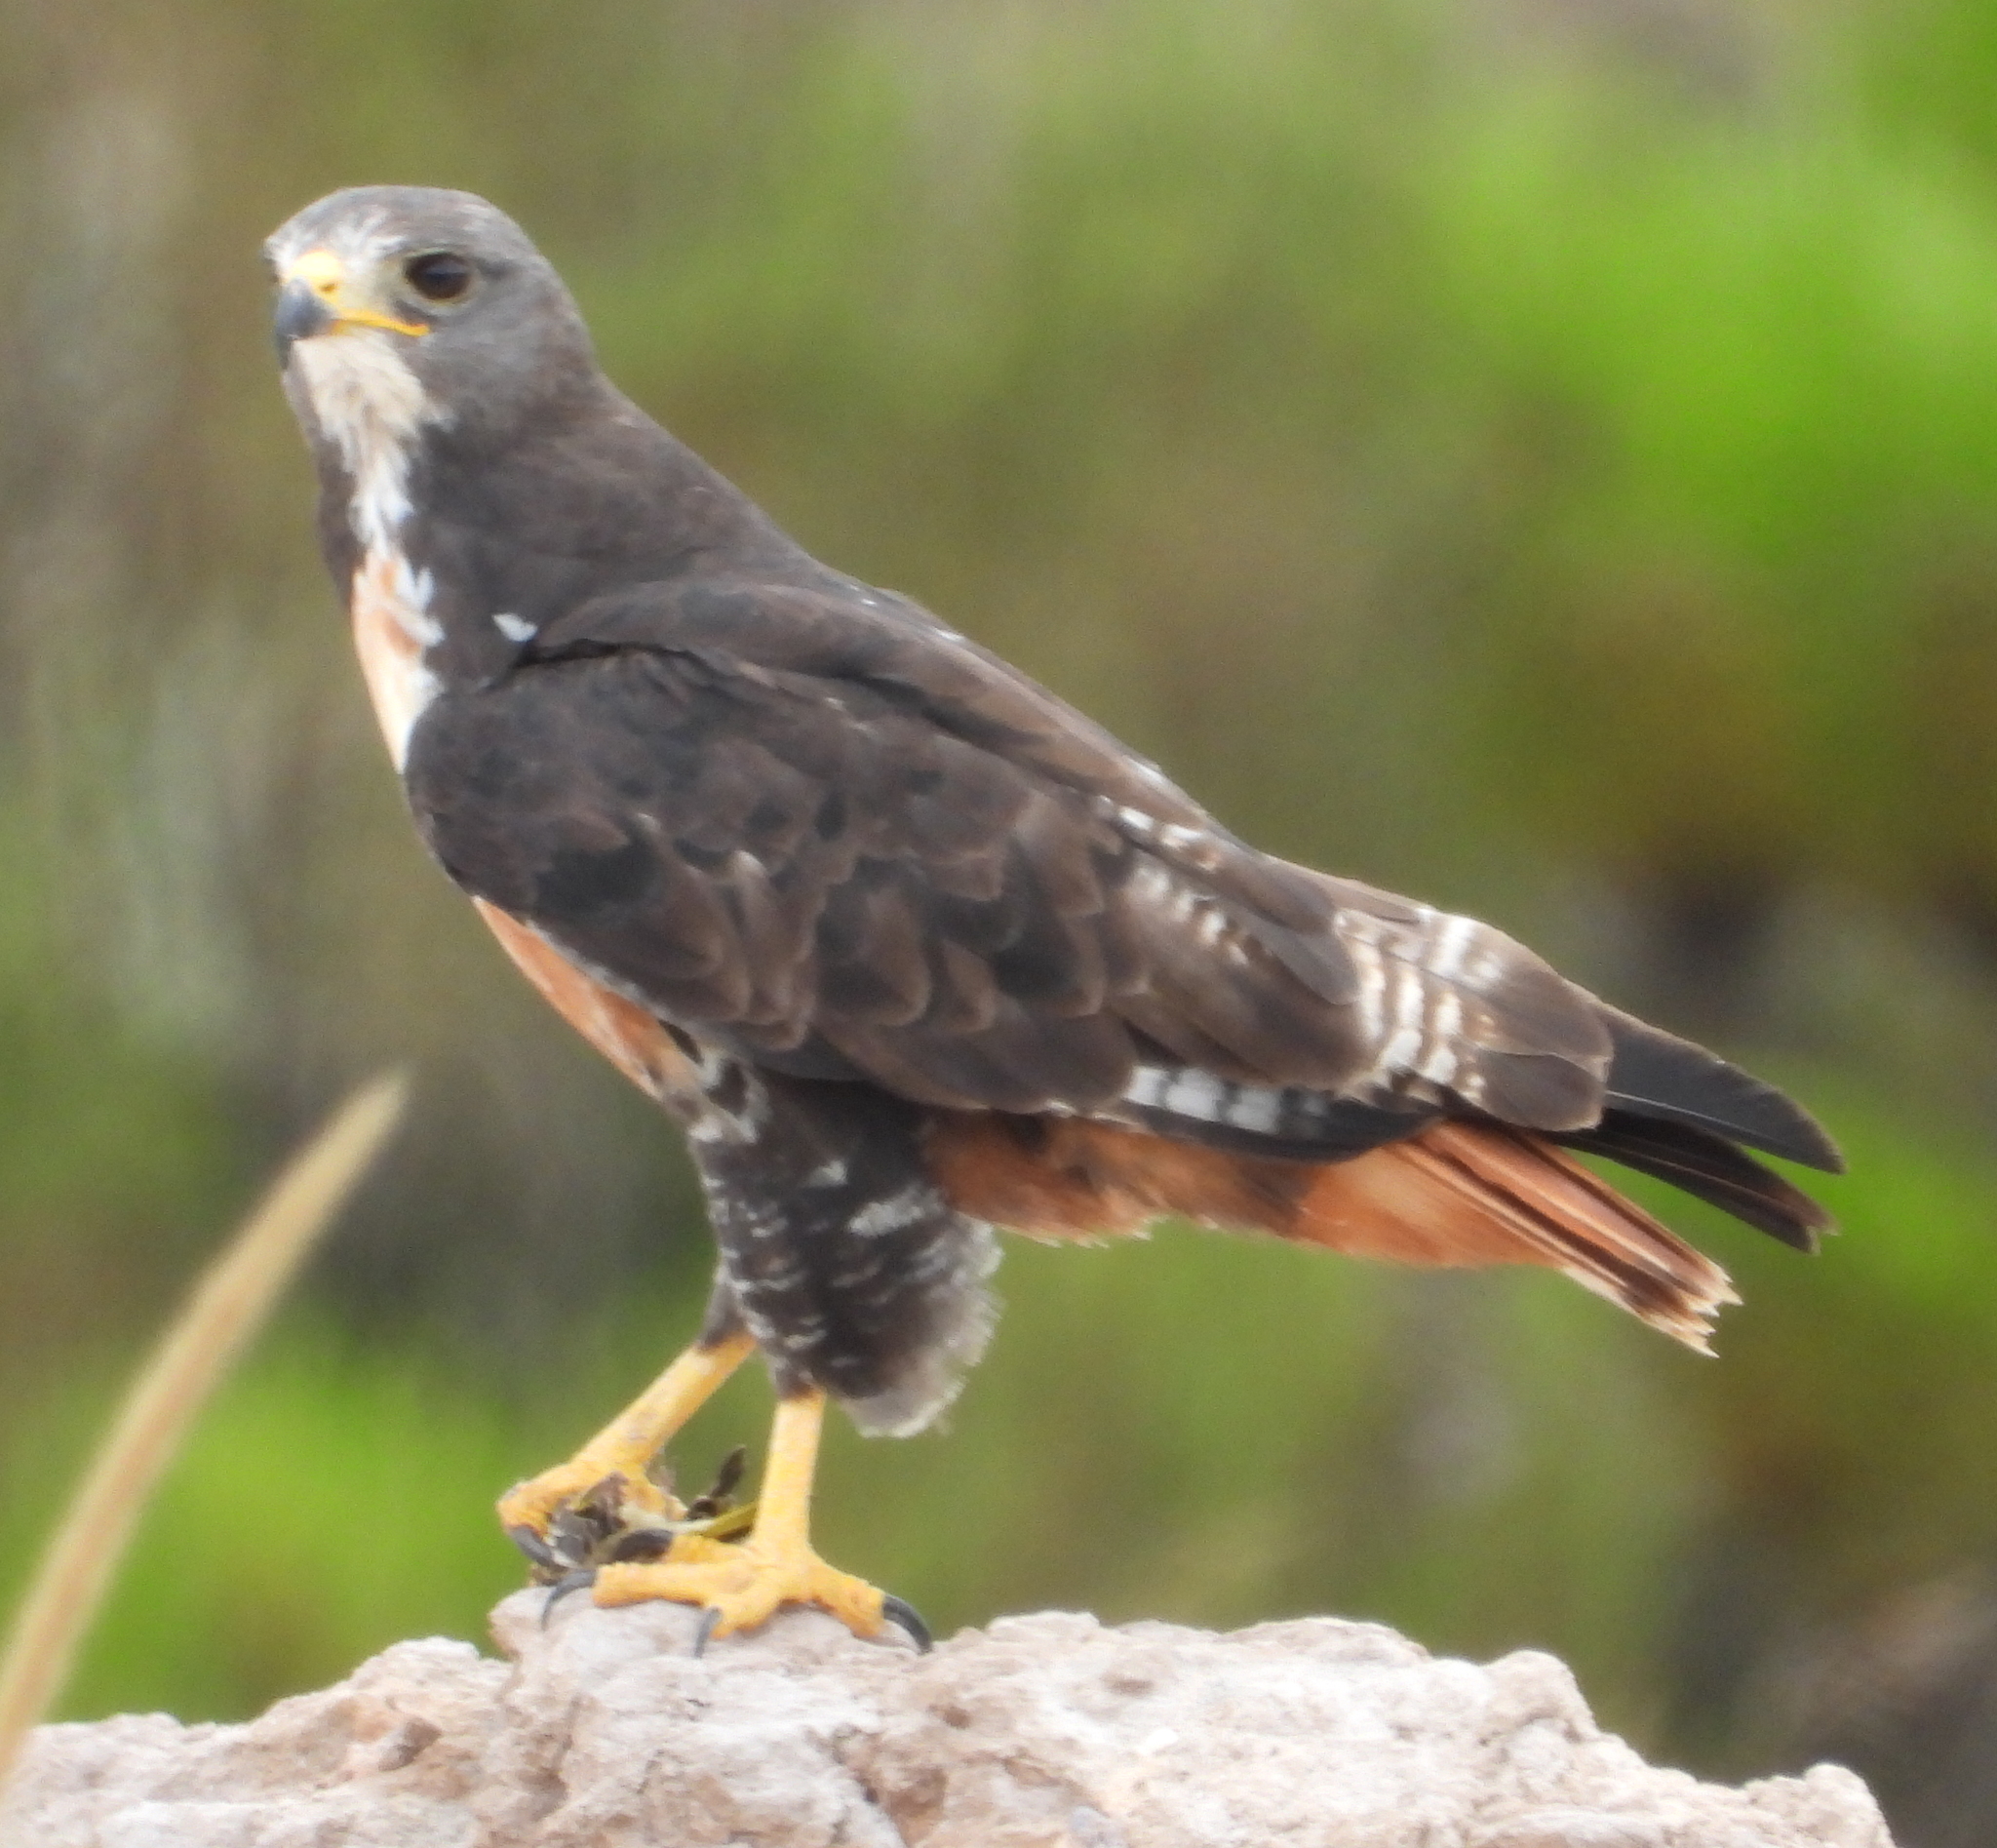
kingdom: Animalia
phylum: Chordata
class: Aves
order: Accipitriformes
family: Accipitridae
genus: Buteo
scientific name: Buteo rufofuscus
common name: Jackal buzzard
